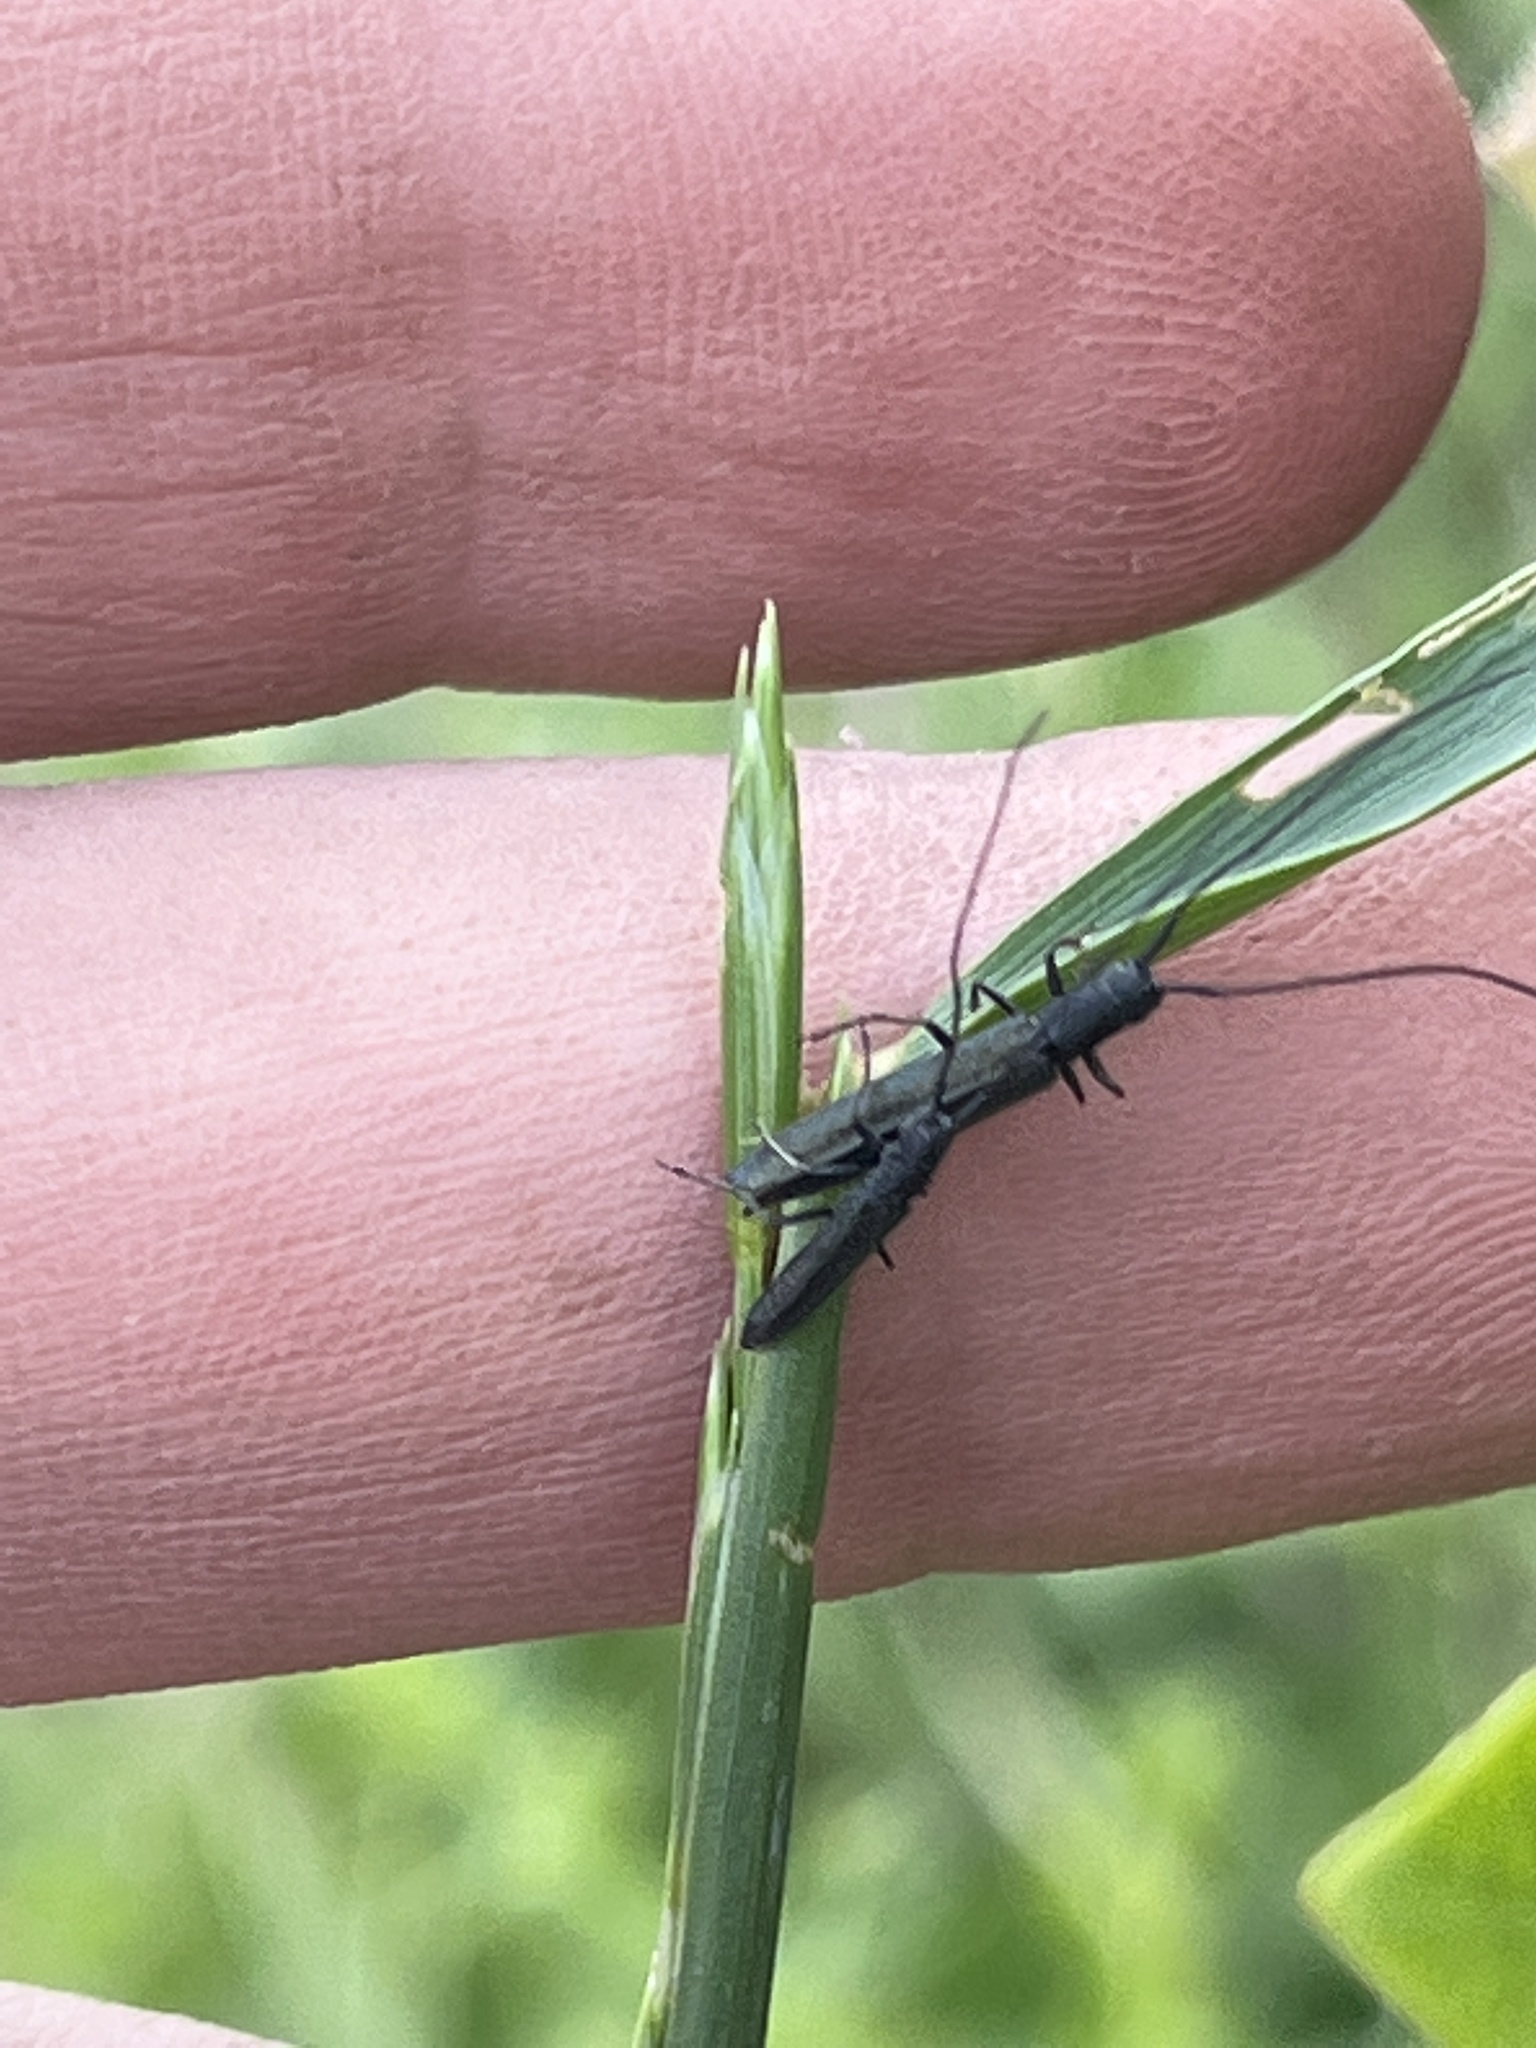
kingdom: Animalia
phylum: Arthropoda
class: Insecta
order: Coleoptera
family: Cerambycidae
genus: Theophilea
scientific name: Theophilea cylindricollis
